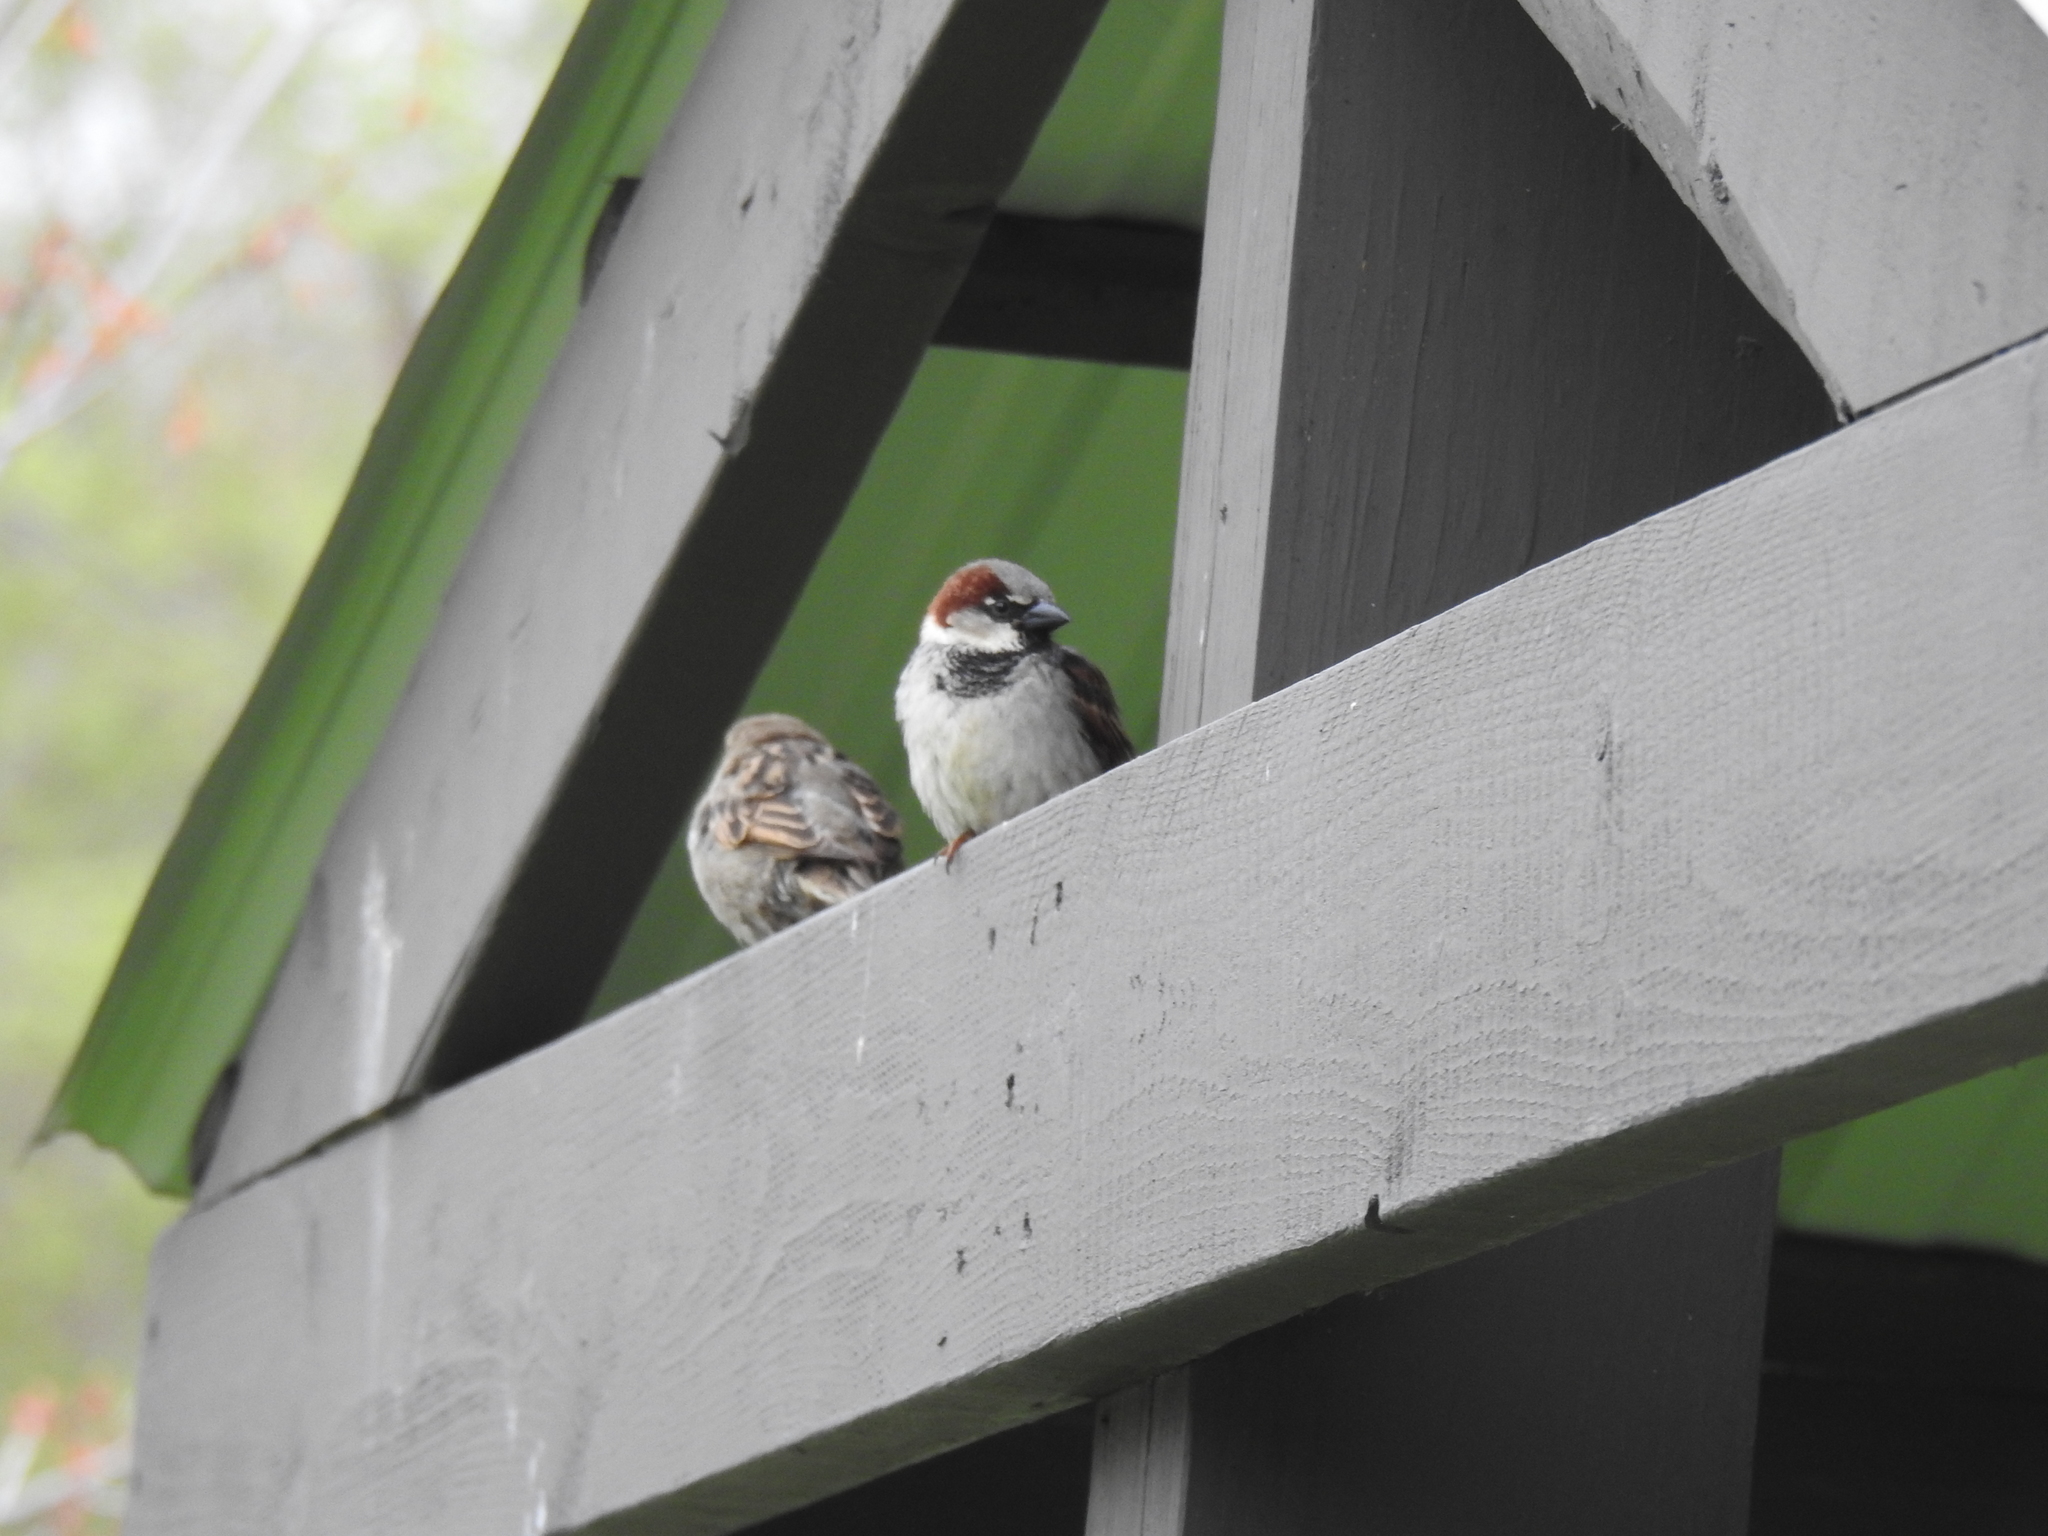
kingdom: Animalia
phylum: Chordata
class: Aves
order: Passeriformes
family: Passeridae
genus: Passer
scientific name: Passer domesticus
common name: House sparrow
